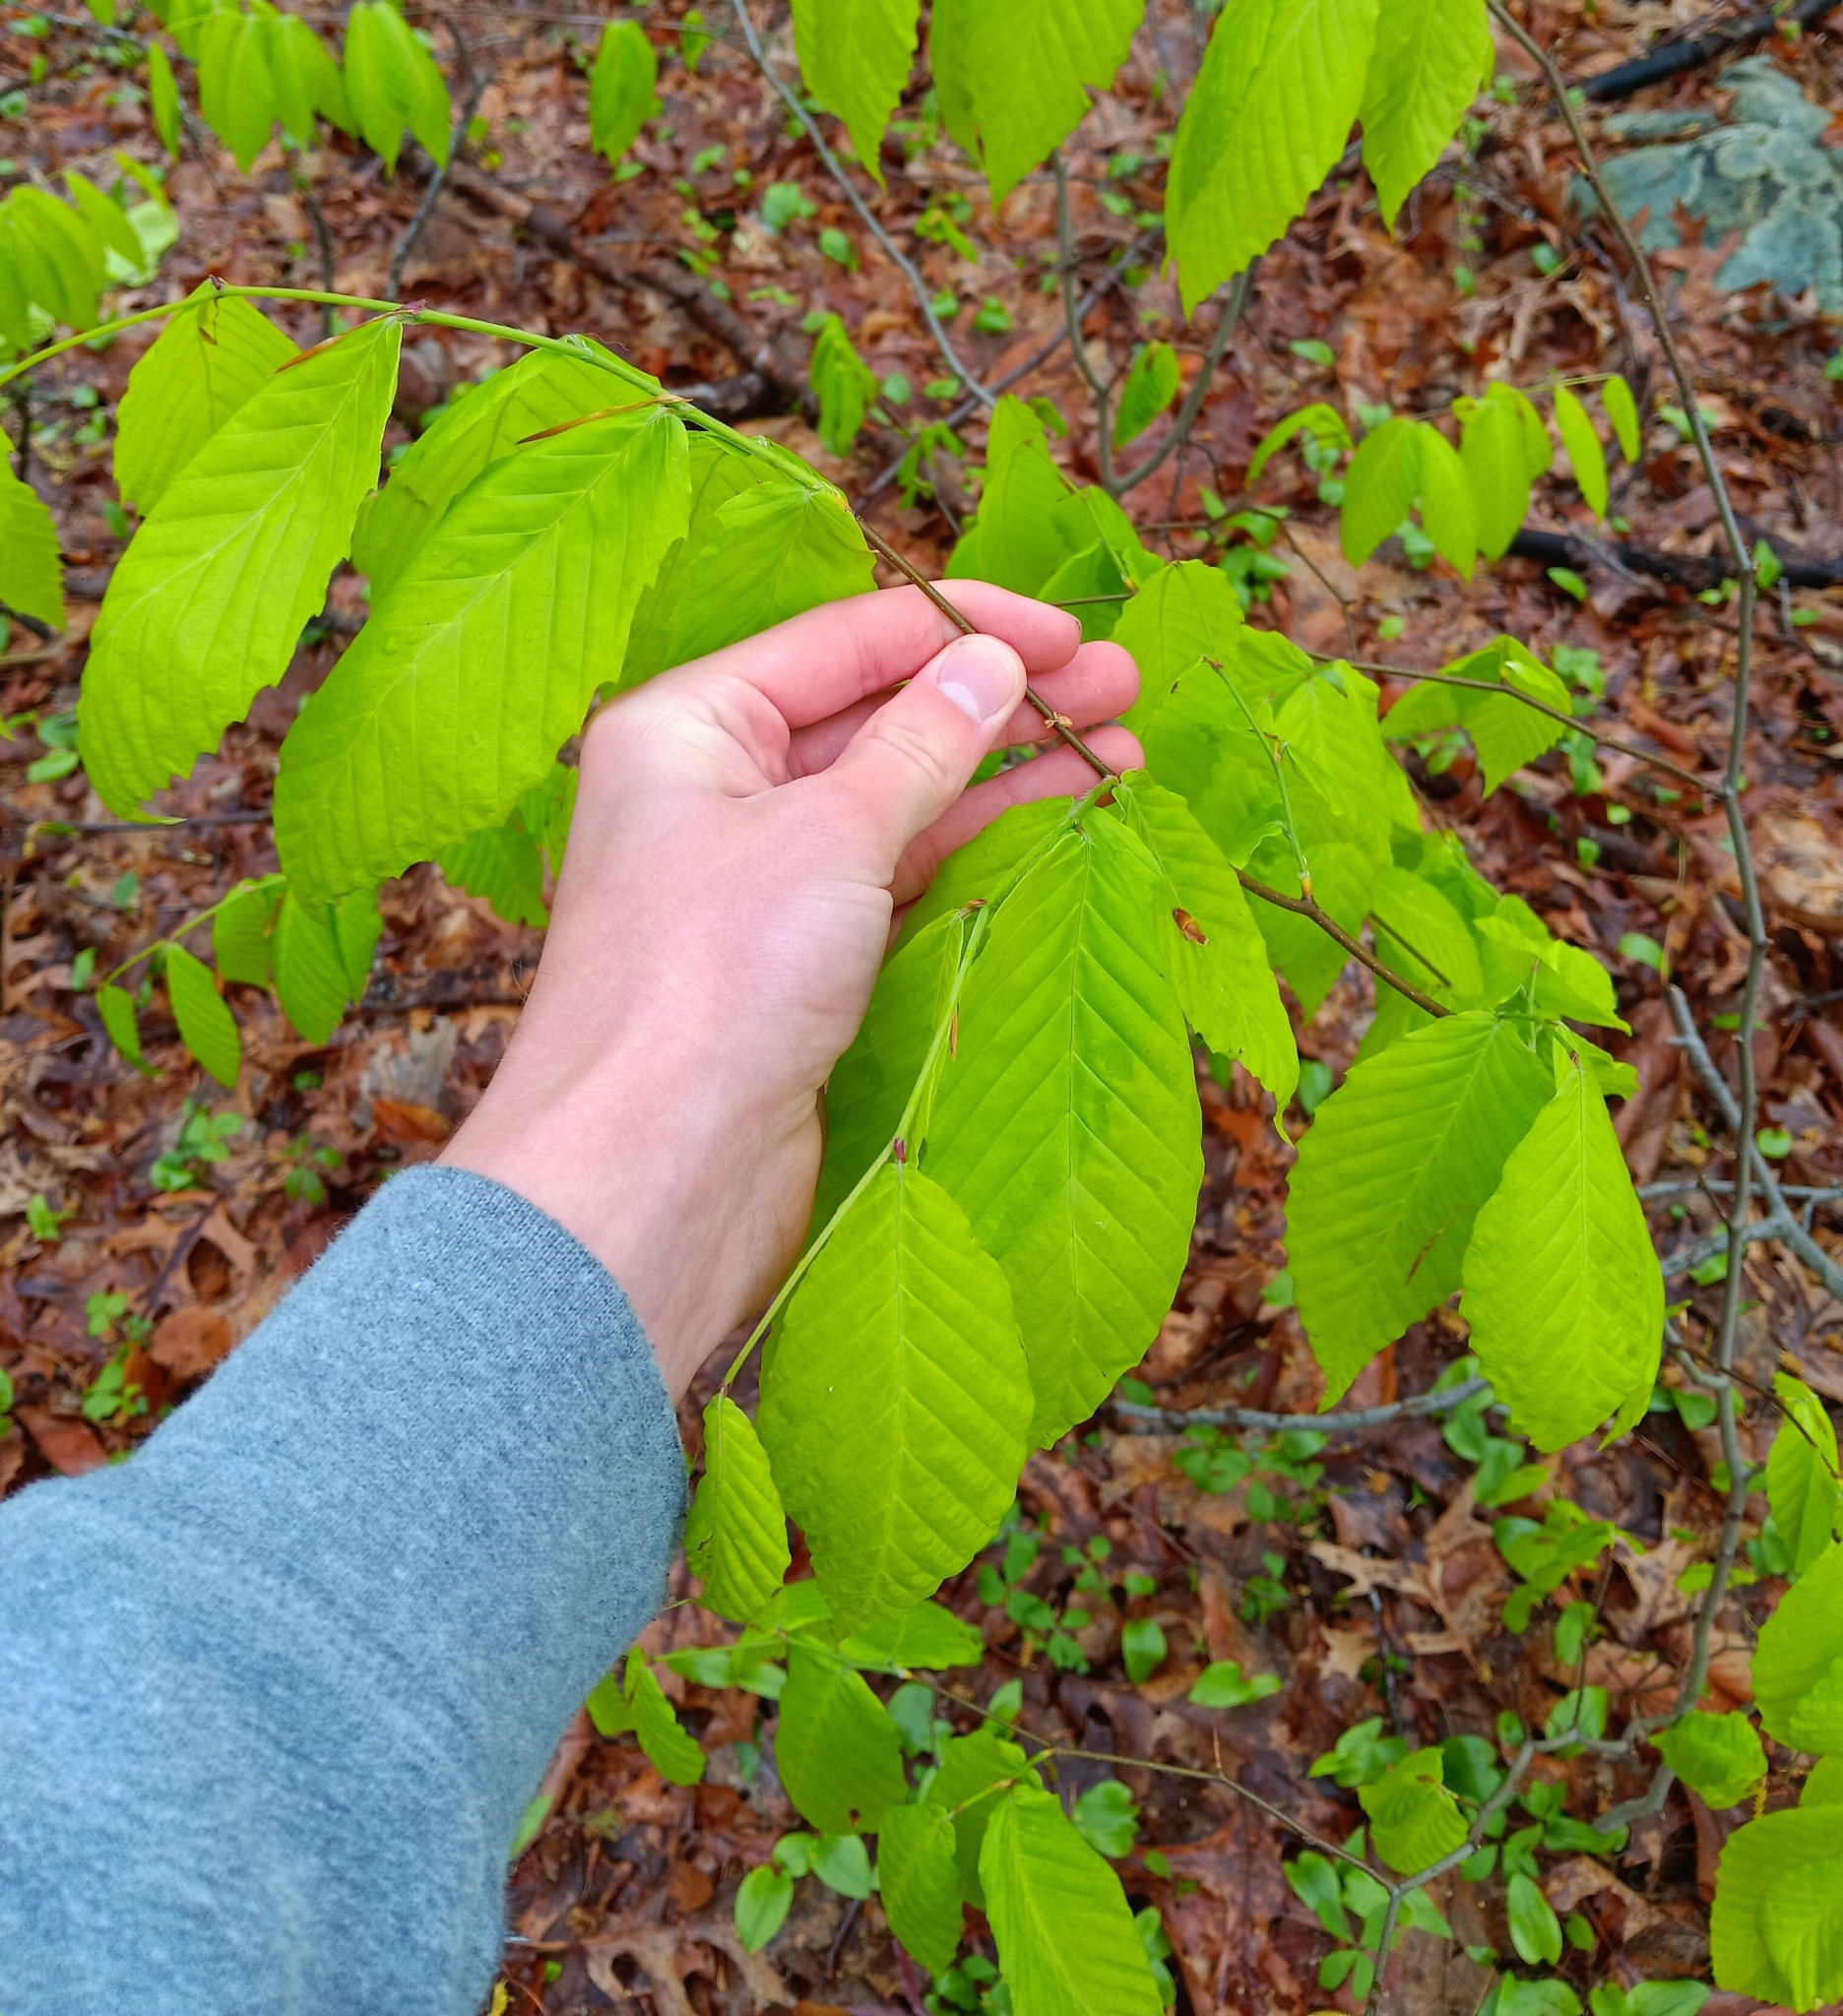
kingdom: Plantae
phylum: Tracheophyta
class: Magnoliopsida
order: Fagales
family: Fagaceae
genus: Fagus
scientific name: Fagus grandifolia
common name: American beech
